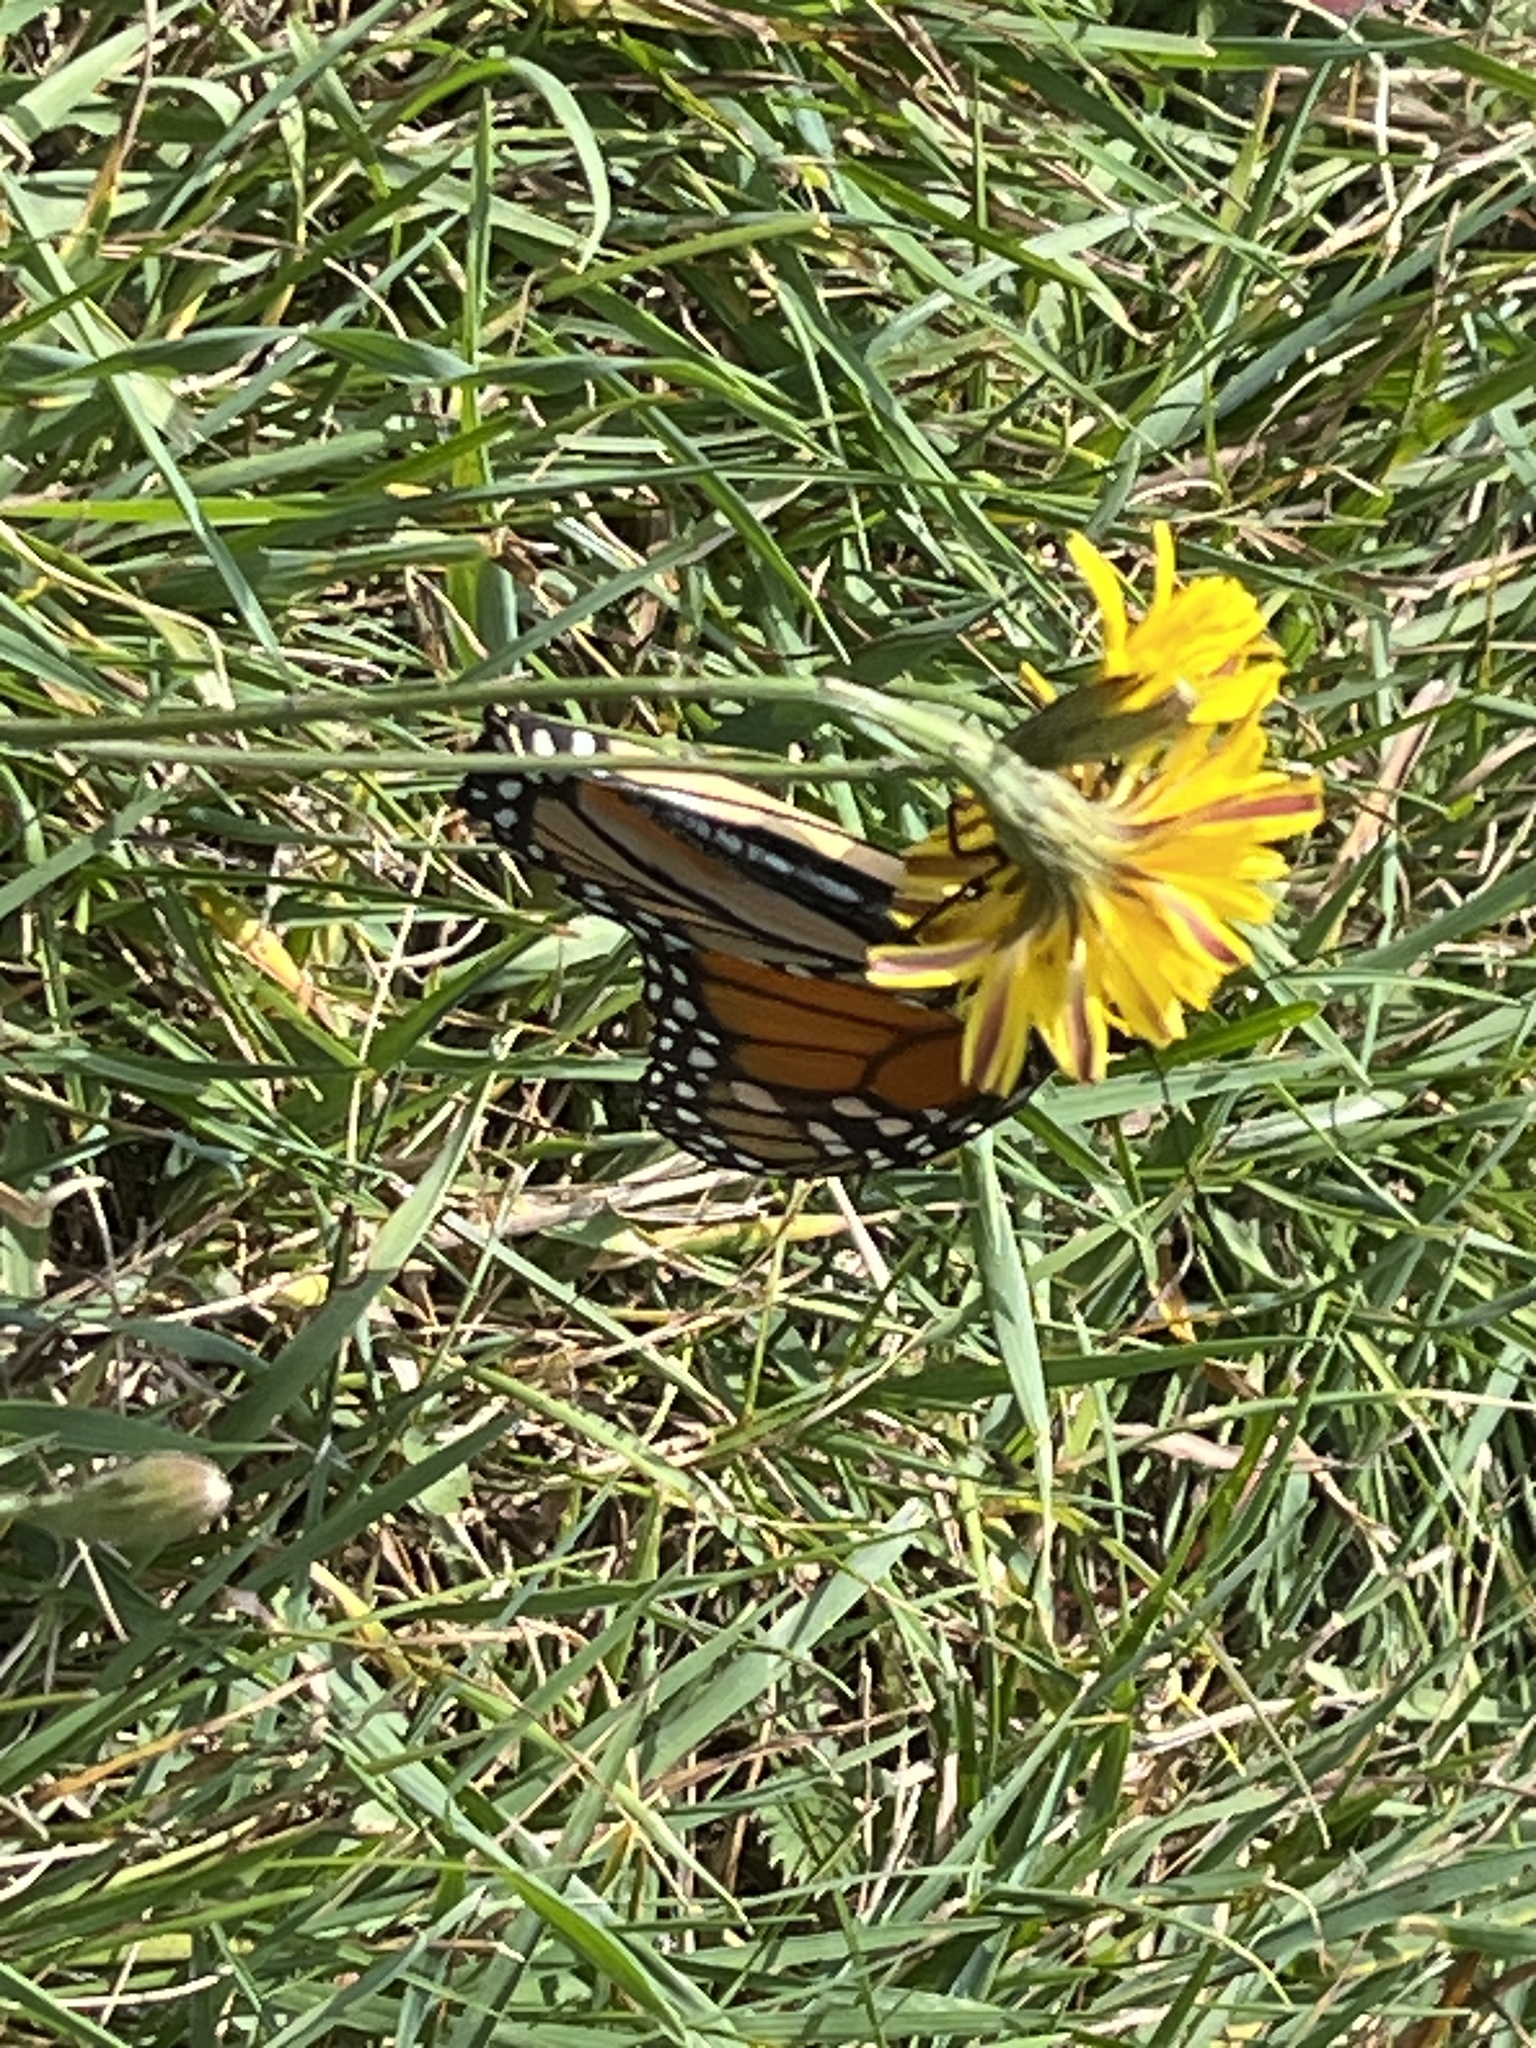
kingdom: Animalia
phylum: Arthropoda
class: Insecta
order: Lepidoptera
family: Nymphalidae
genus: Danaus
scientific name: Danaus plexippus
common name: Monarch
